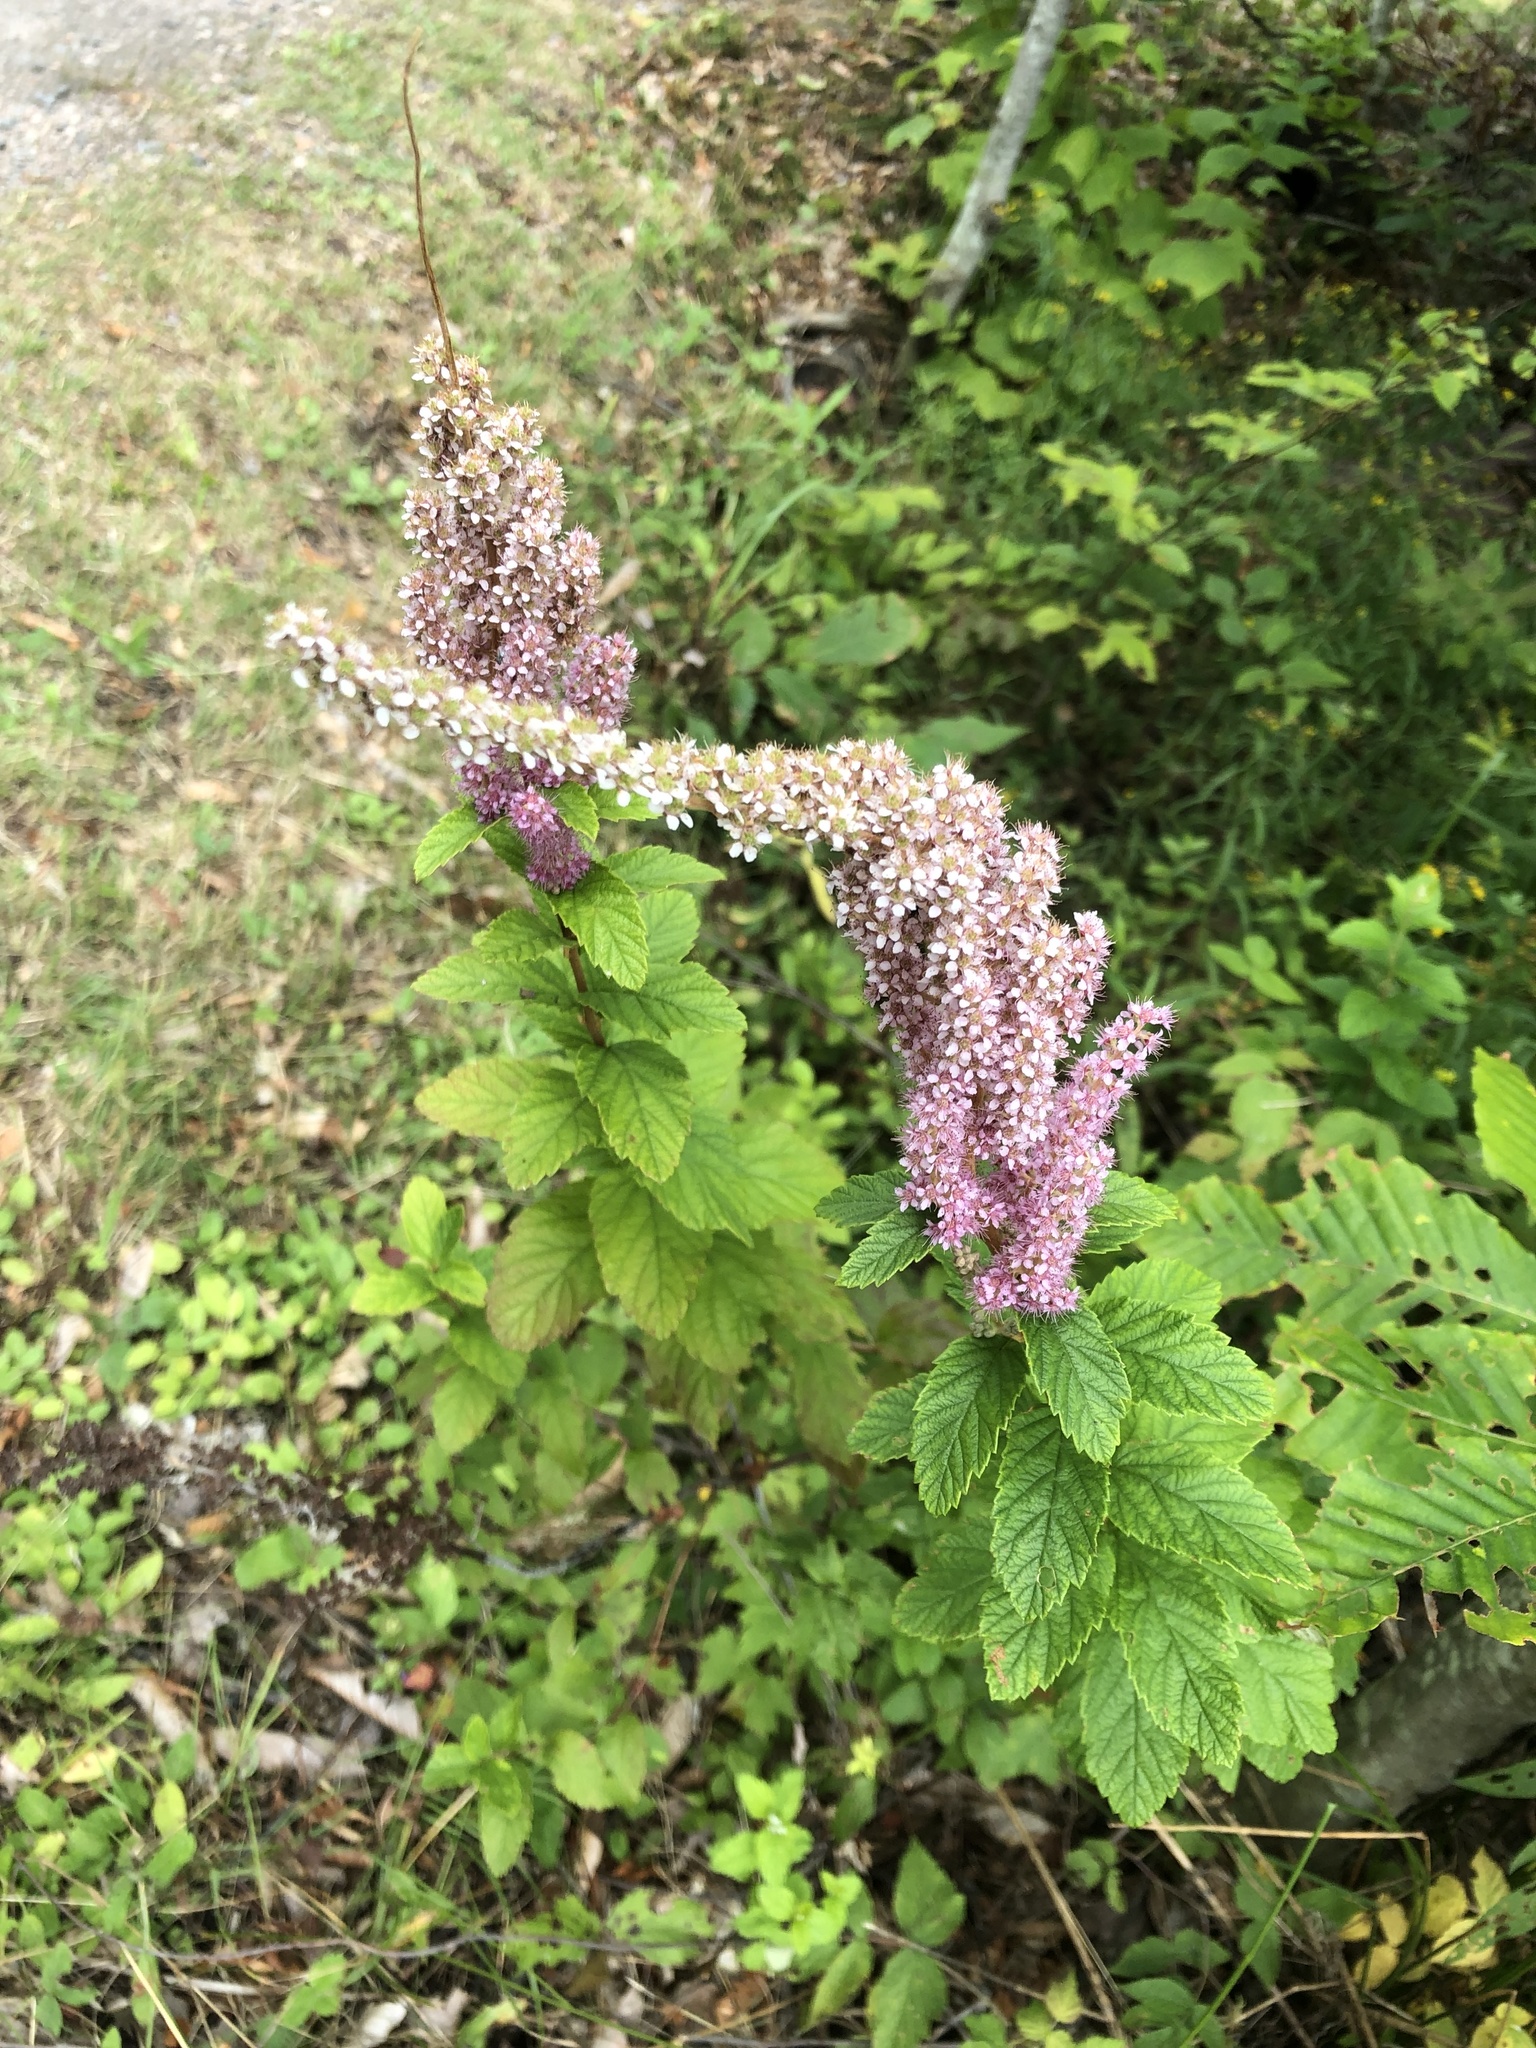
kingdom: Plantae
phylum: Tracheophyta
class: Magnoliopsida
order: Rosales
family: Rosaceae
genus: Spiraea
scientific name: Spiraea tomentosa
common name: Hardhack
